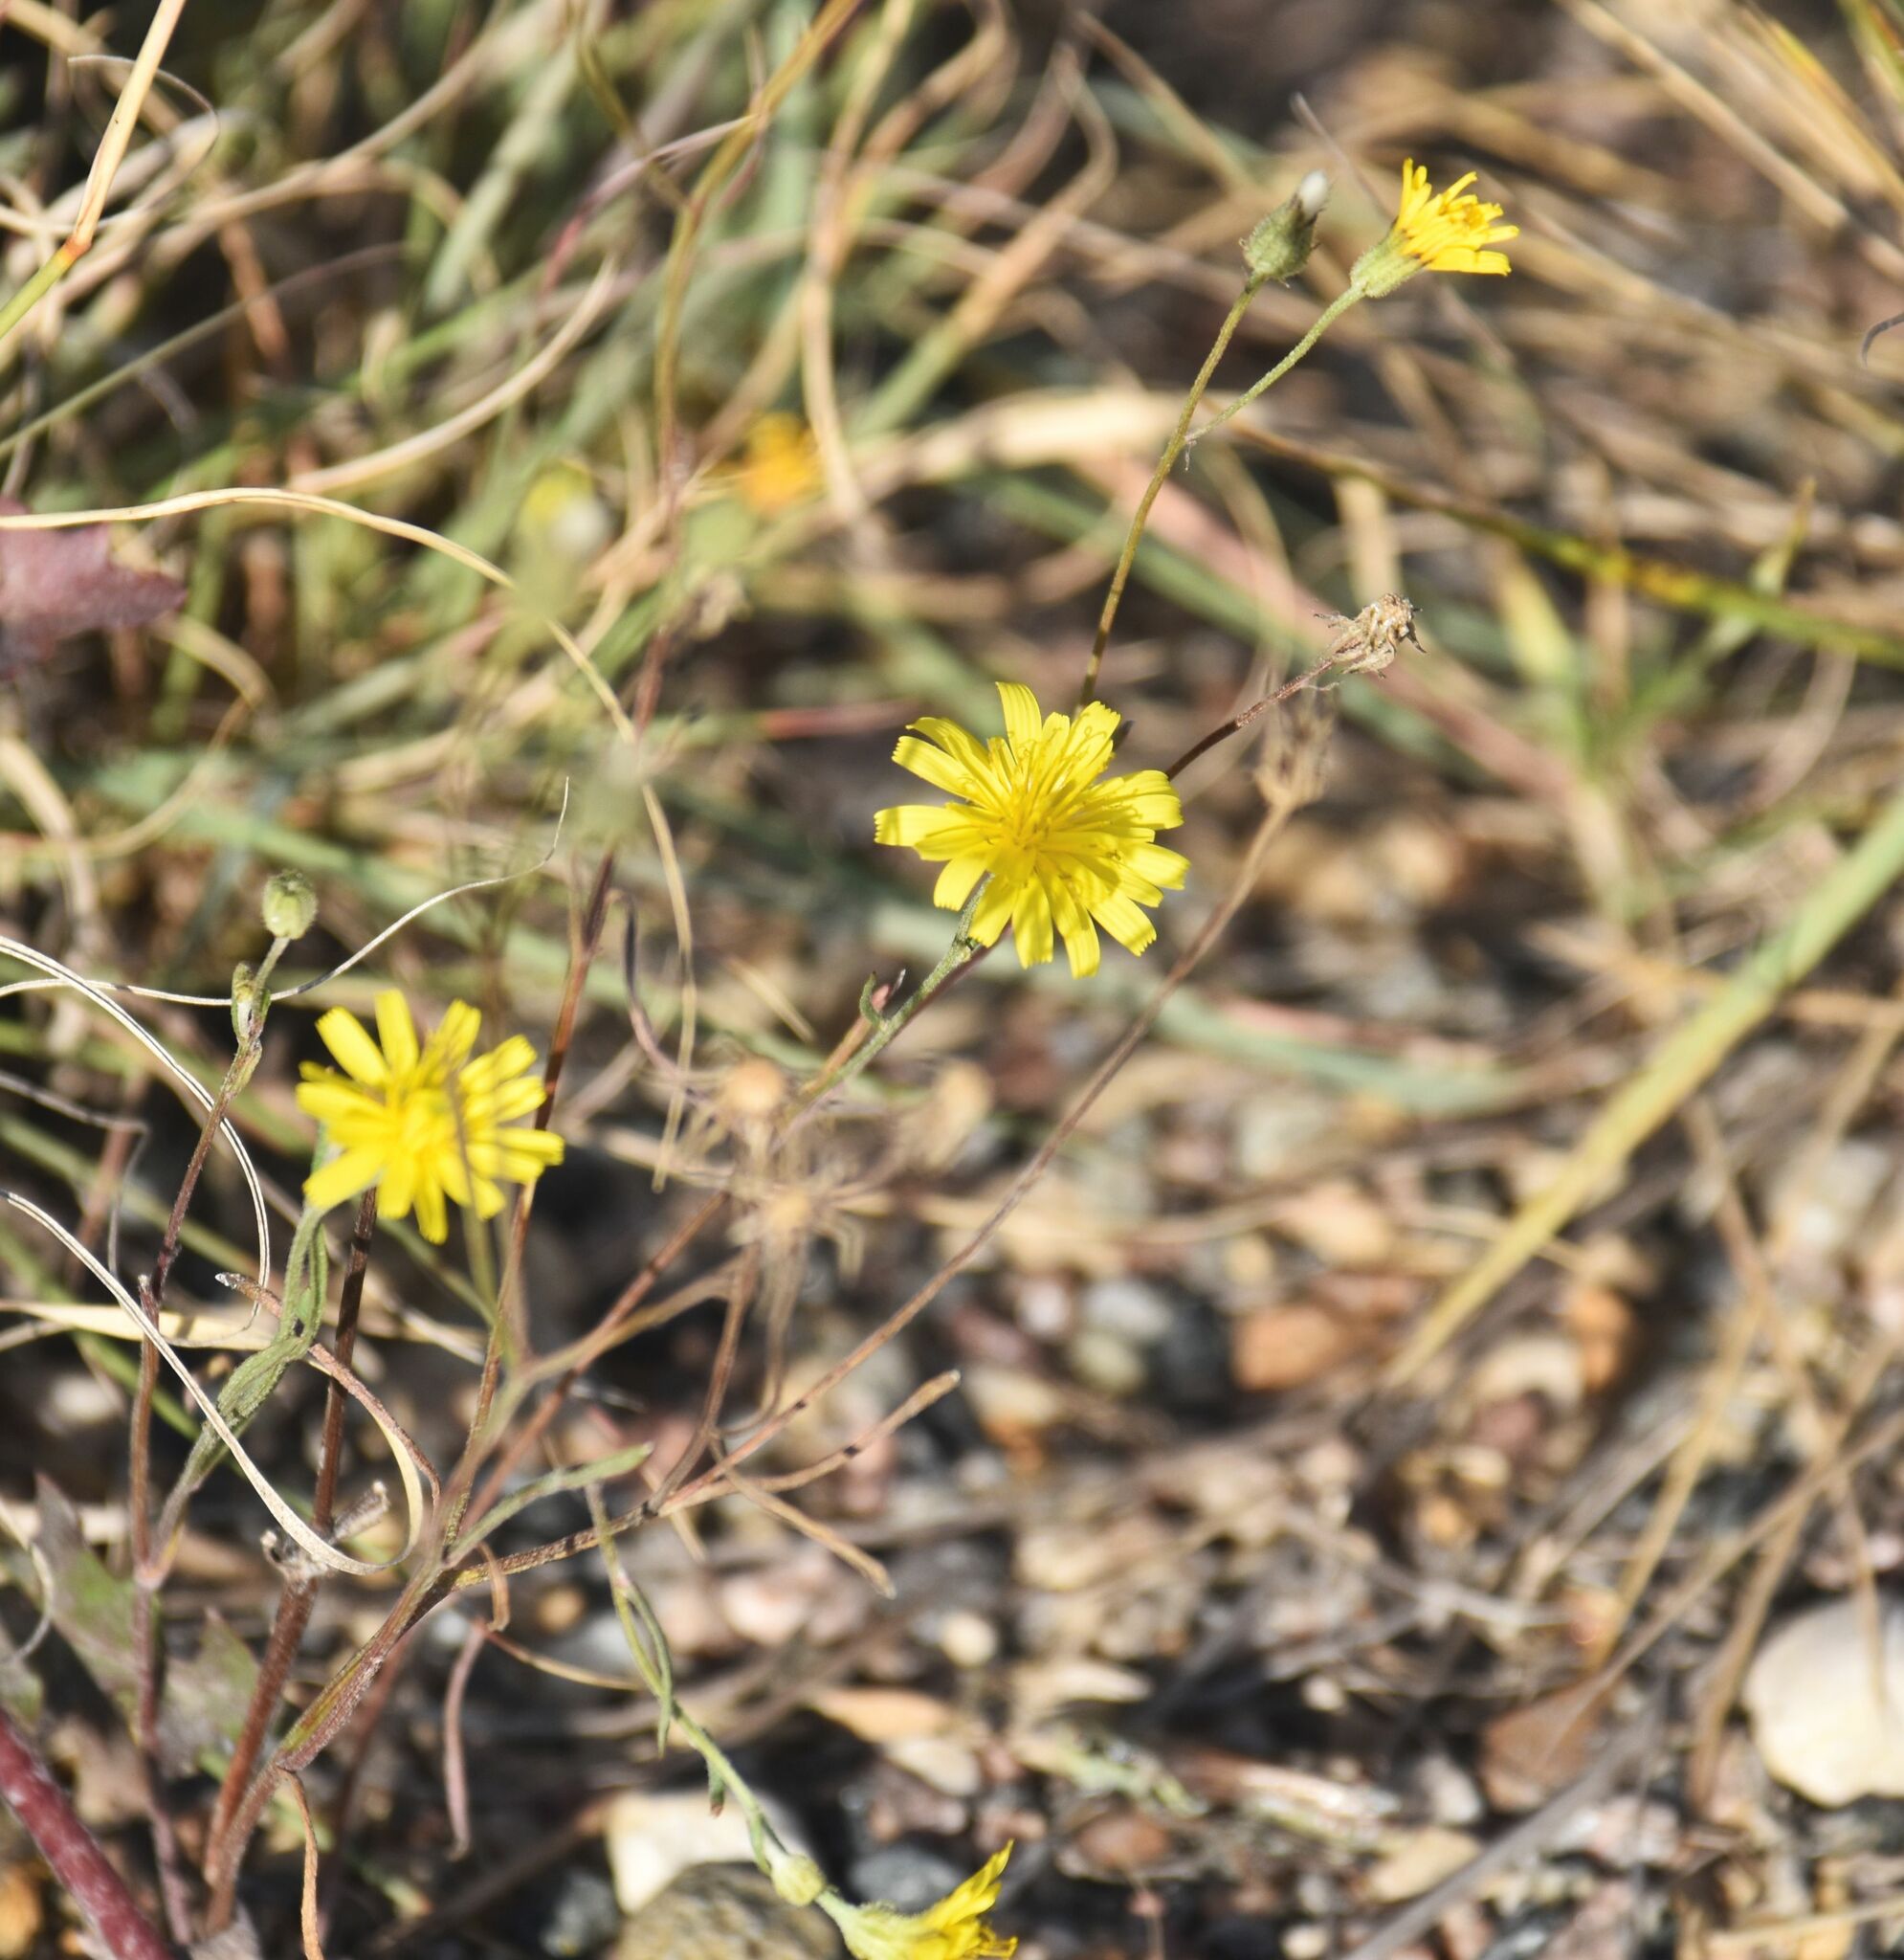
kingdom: Plantae
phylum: Tracheophyta
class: Magnoliopsida
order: Asterales
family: Asteraceae
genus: Crepis
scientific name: Crepis tectorum
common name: Narrow-leaved hawk's-beard
